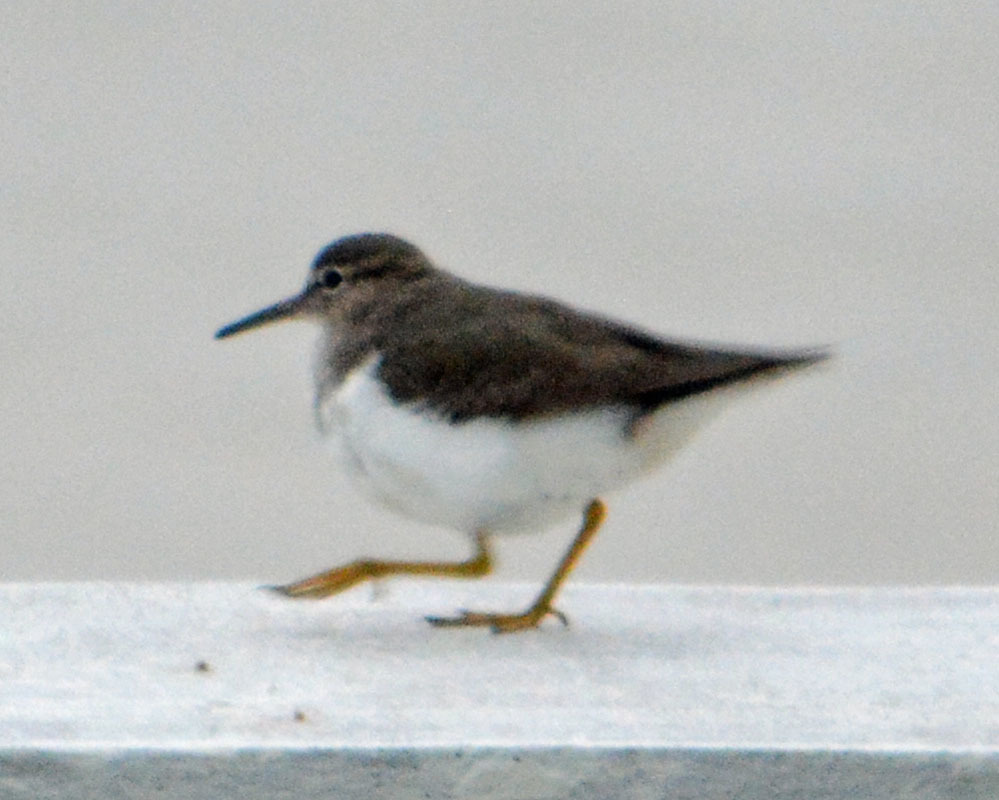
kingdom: Animalia
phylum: Chordata
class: Aves
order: Charadriiformes
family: Scolopacidae
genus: Actitis
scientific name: Actitis macularius
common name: Spotted sandpiper
